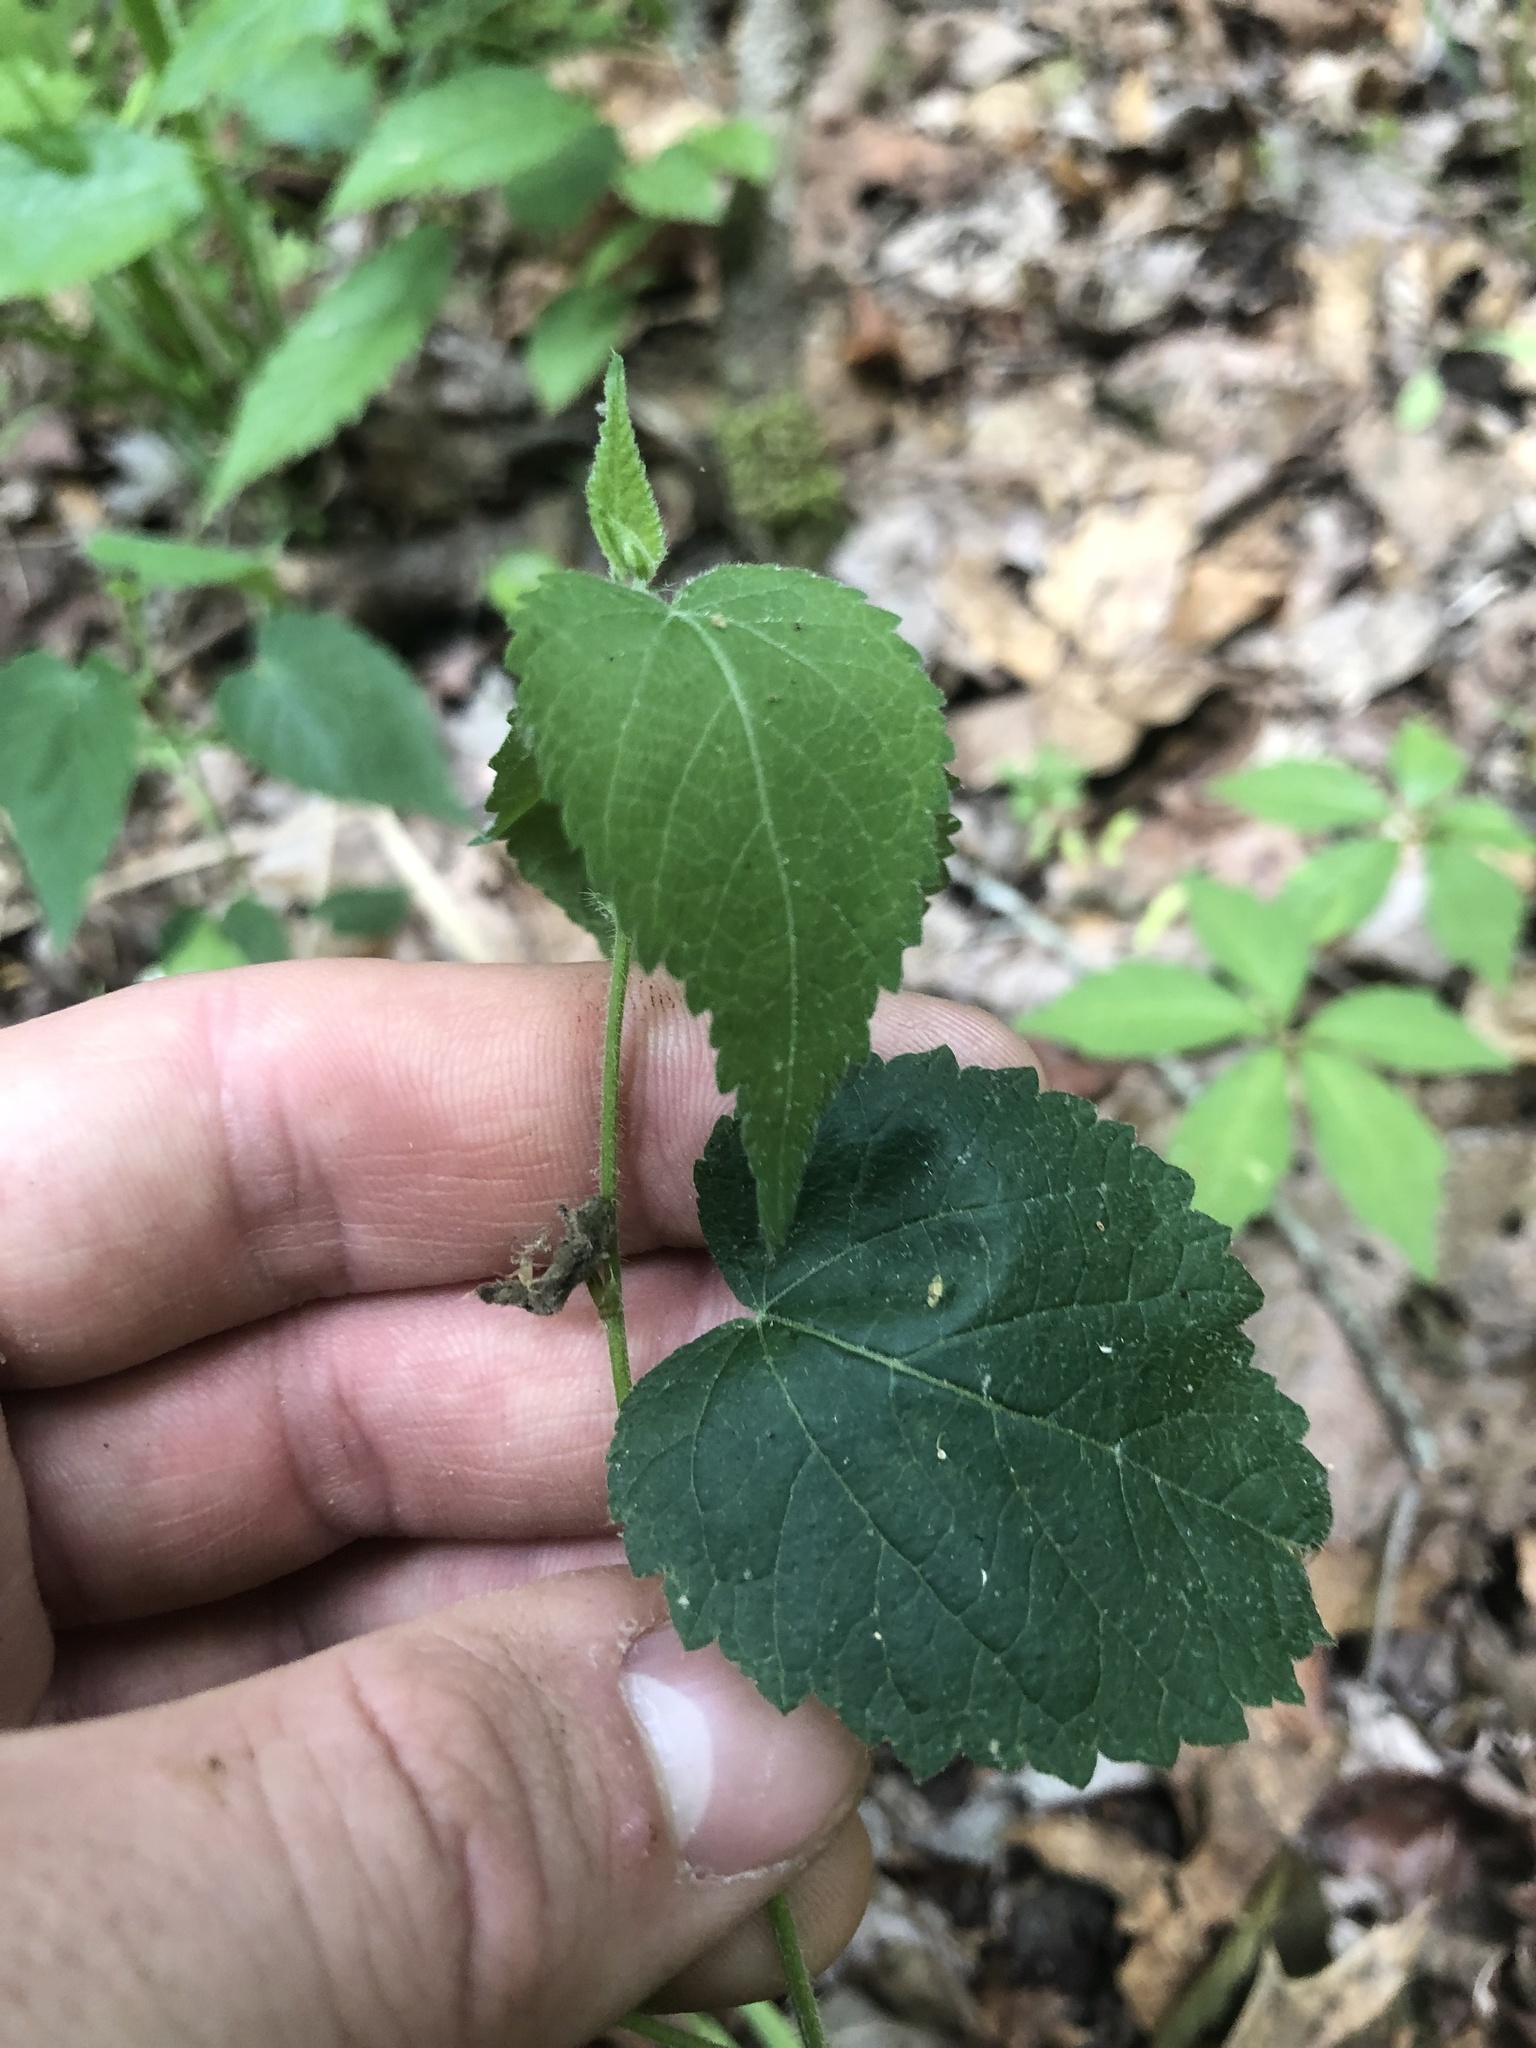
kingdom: Plantae
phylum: Tracheophyta
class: Magnoliopsida
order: Malpighiales
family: Euphorbiaceae
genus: Tragia
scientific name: Tragia cordata
